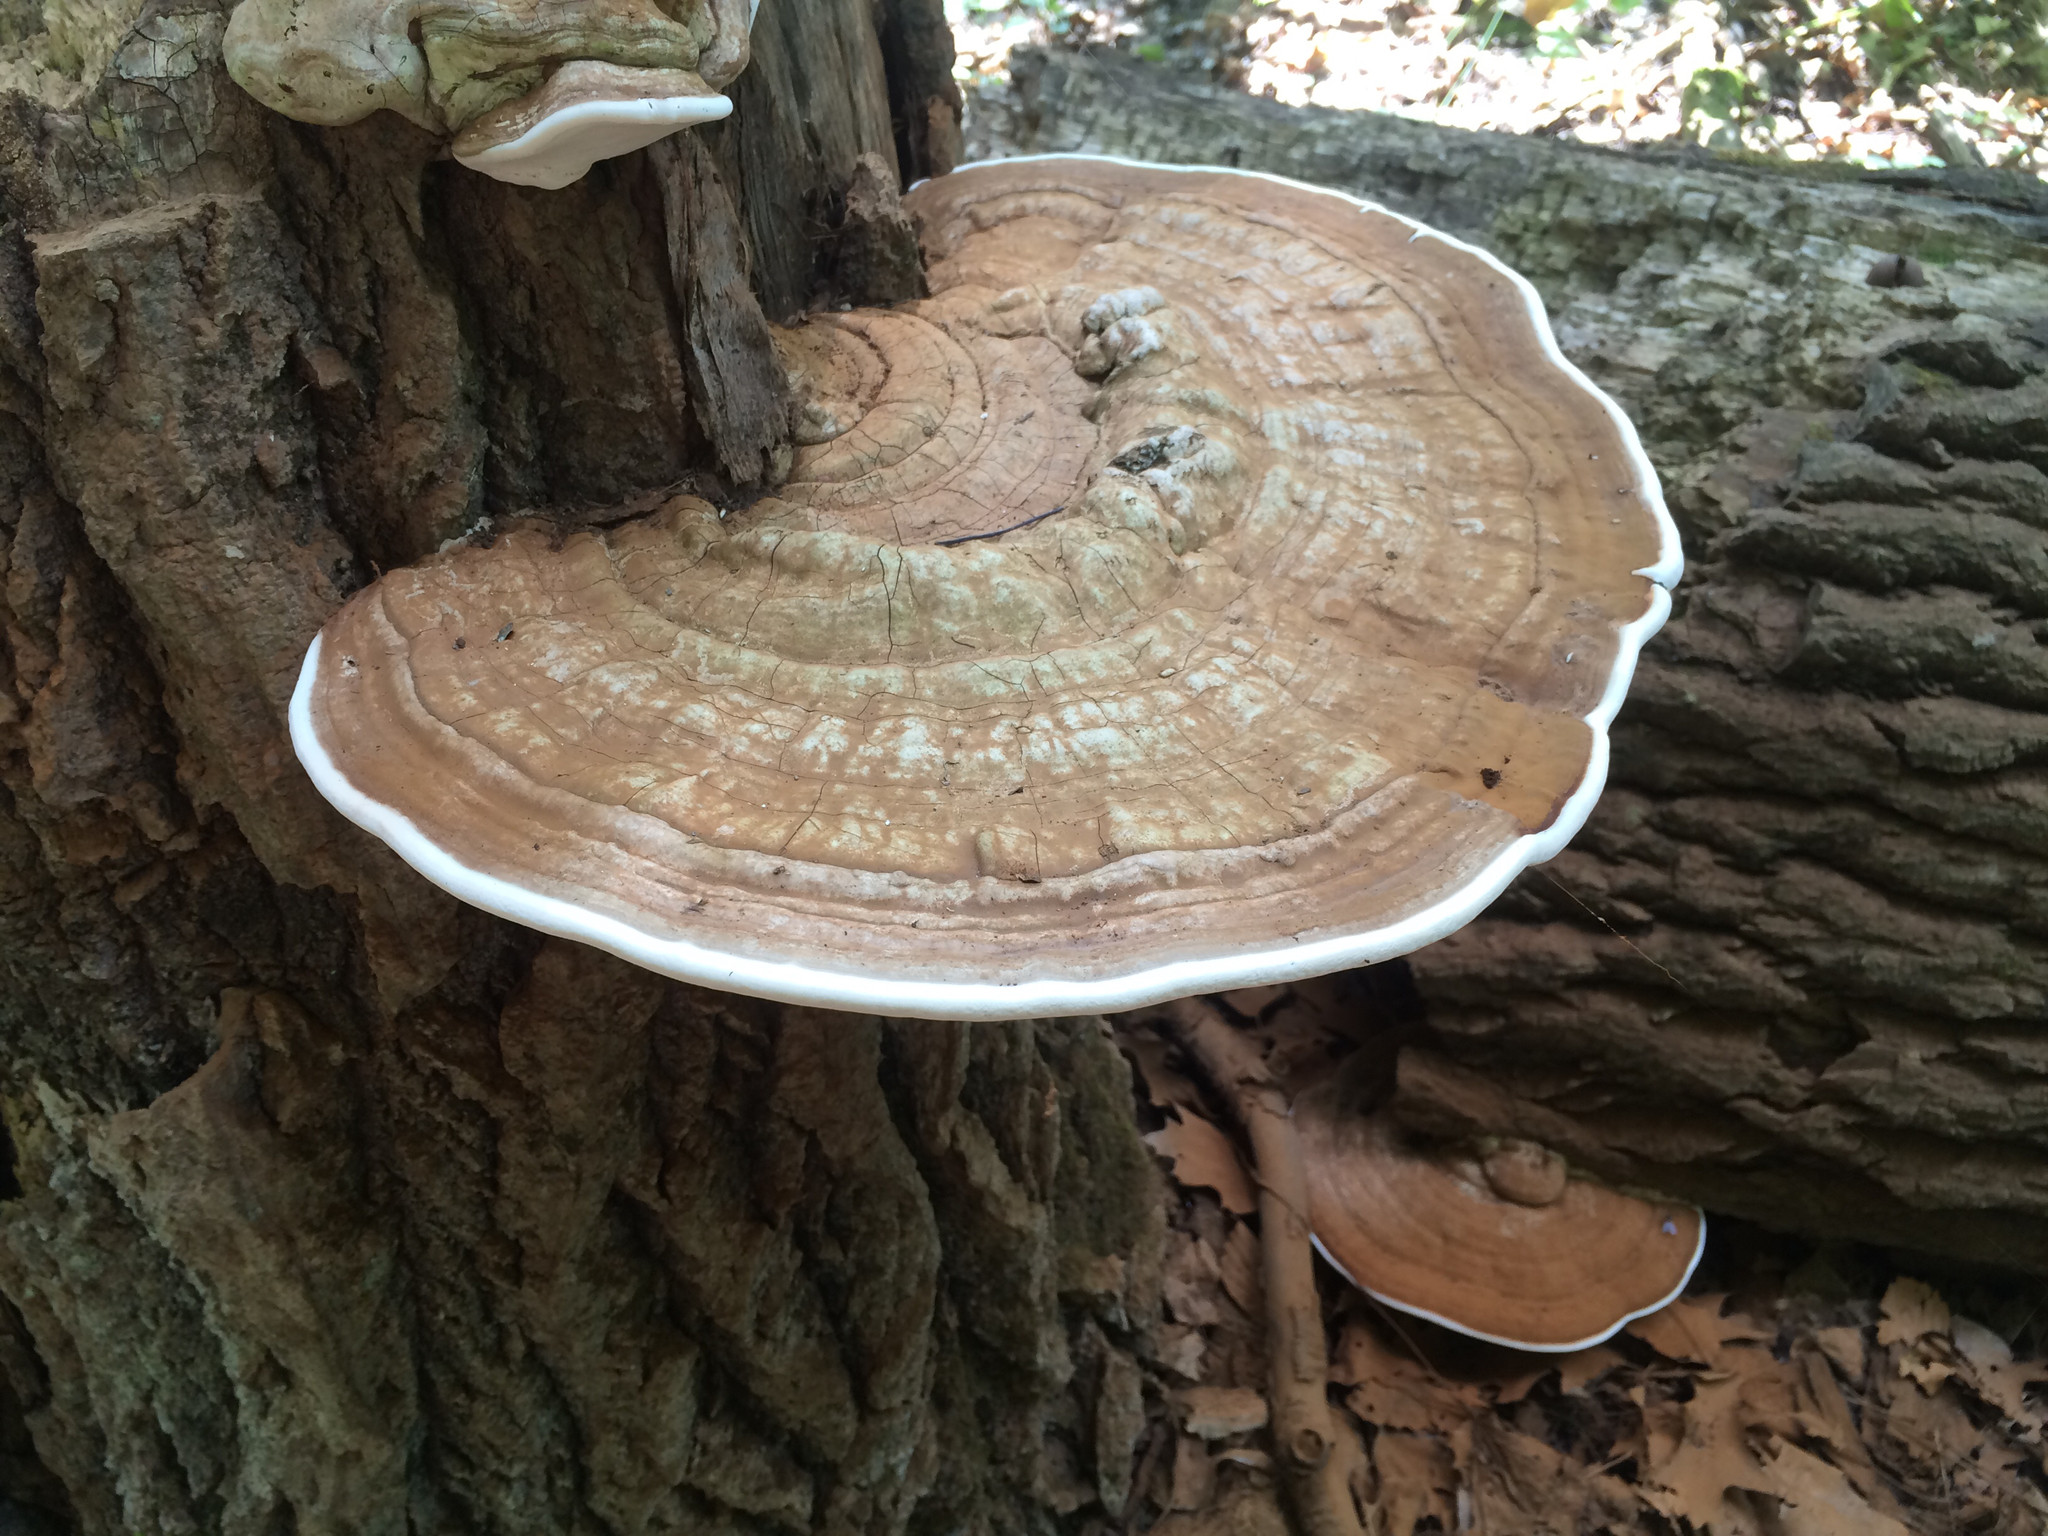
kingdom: Fungi
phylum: Basidiomycota
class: Agaricomycetes
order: Polyporales
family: Polyporaceae
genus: Ganoderma
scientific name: Ganoderma applanatum
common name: Artist's bracket
